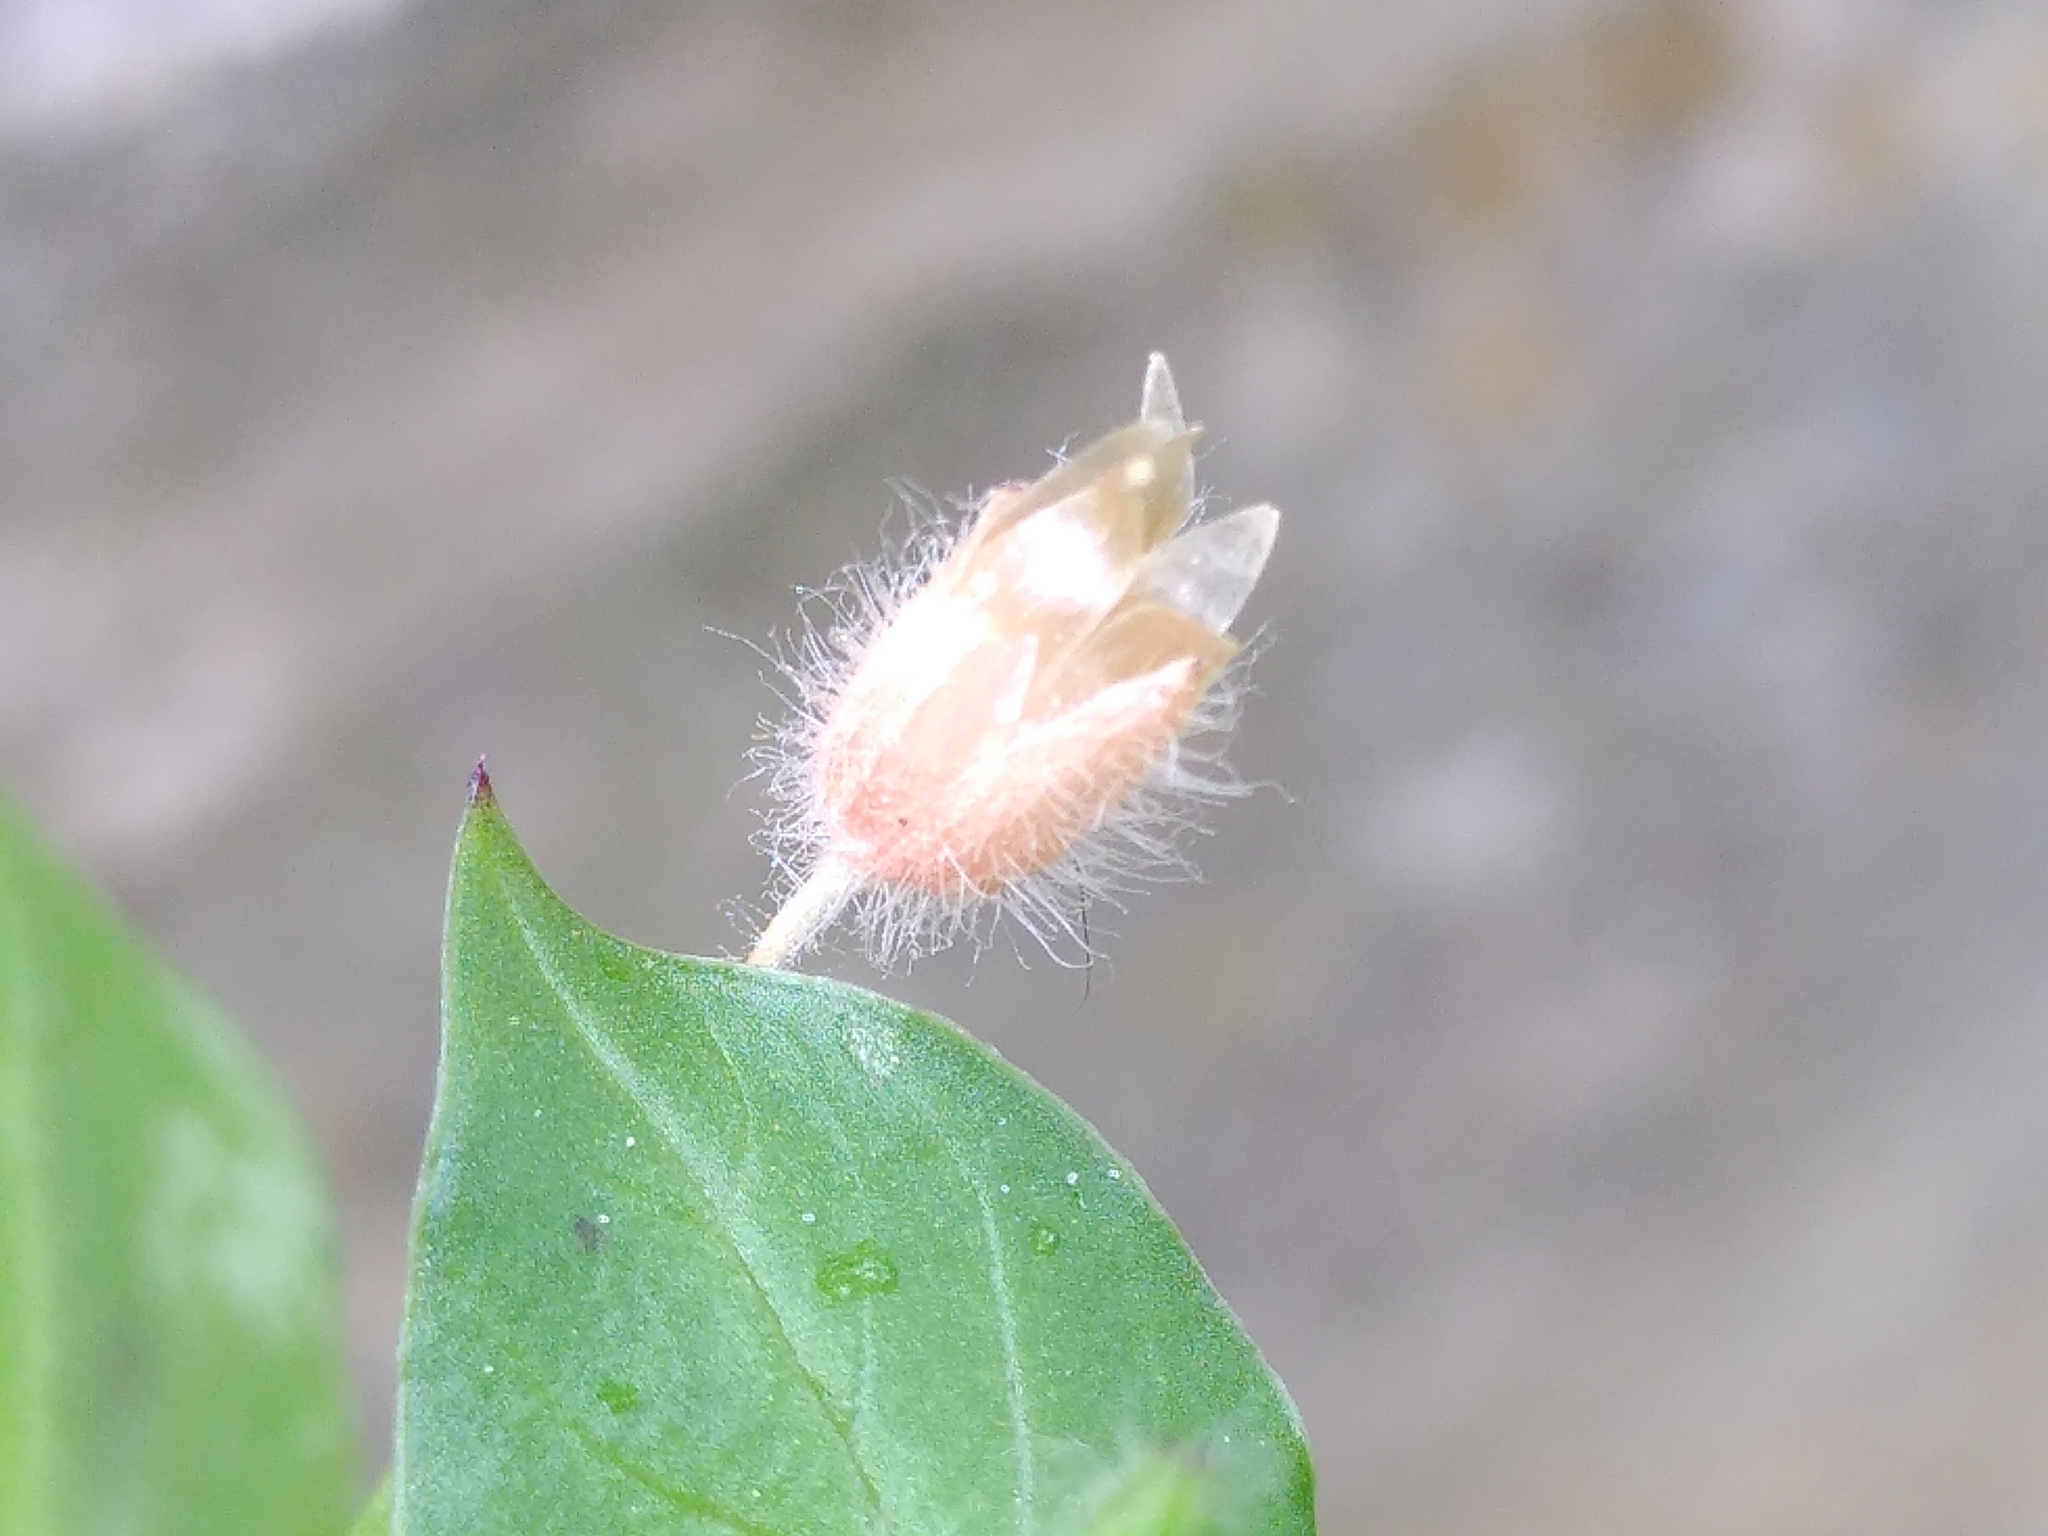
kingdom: Plantae
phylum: Tracheophyta
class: Magnoliopsida
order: Caryophyllales
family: Caryophyllaceae
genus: Stellaria
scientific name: Stellaria media
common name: Common chickweed
